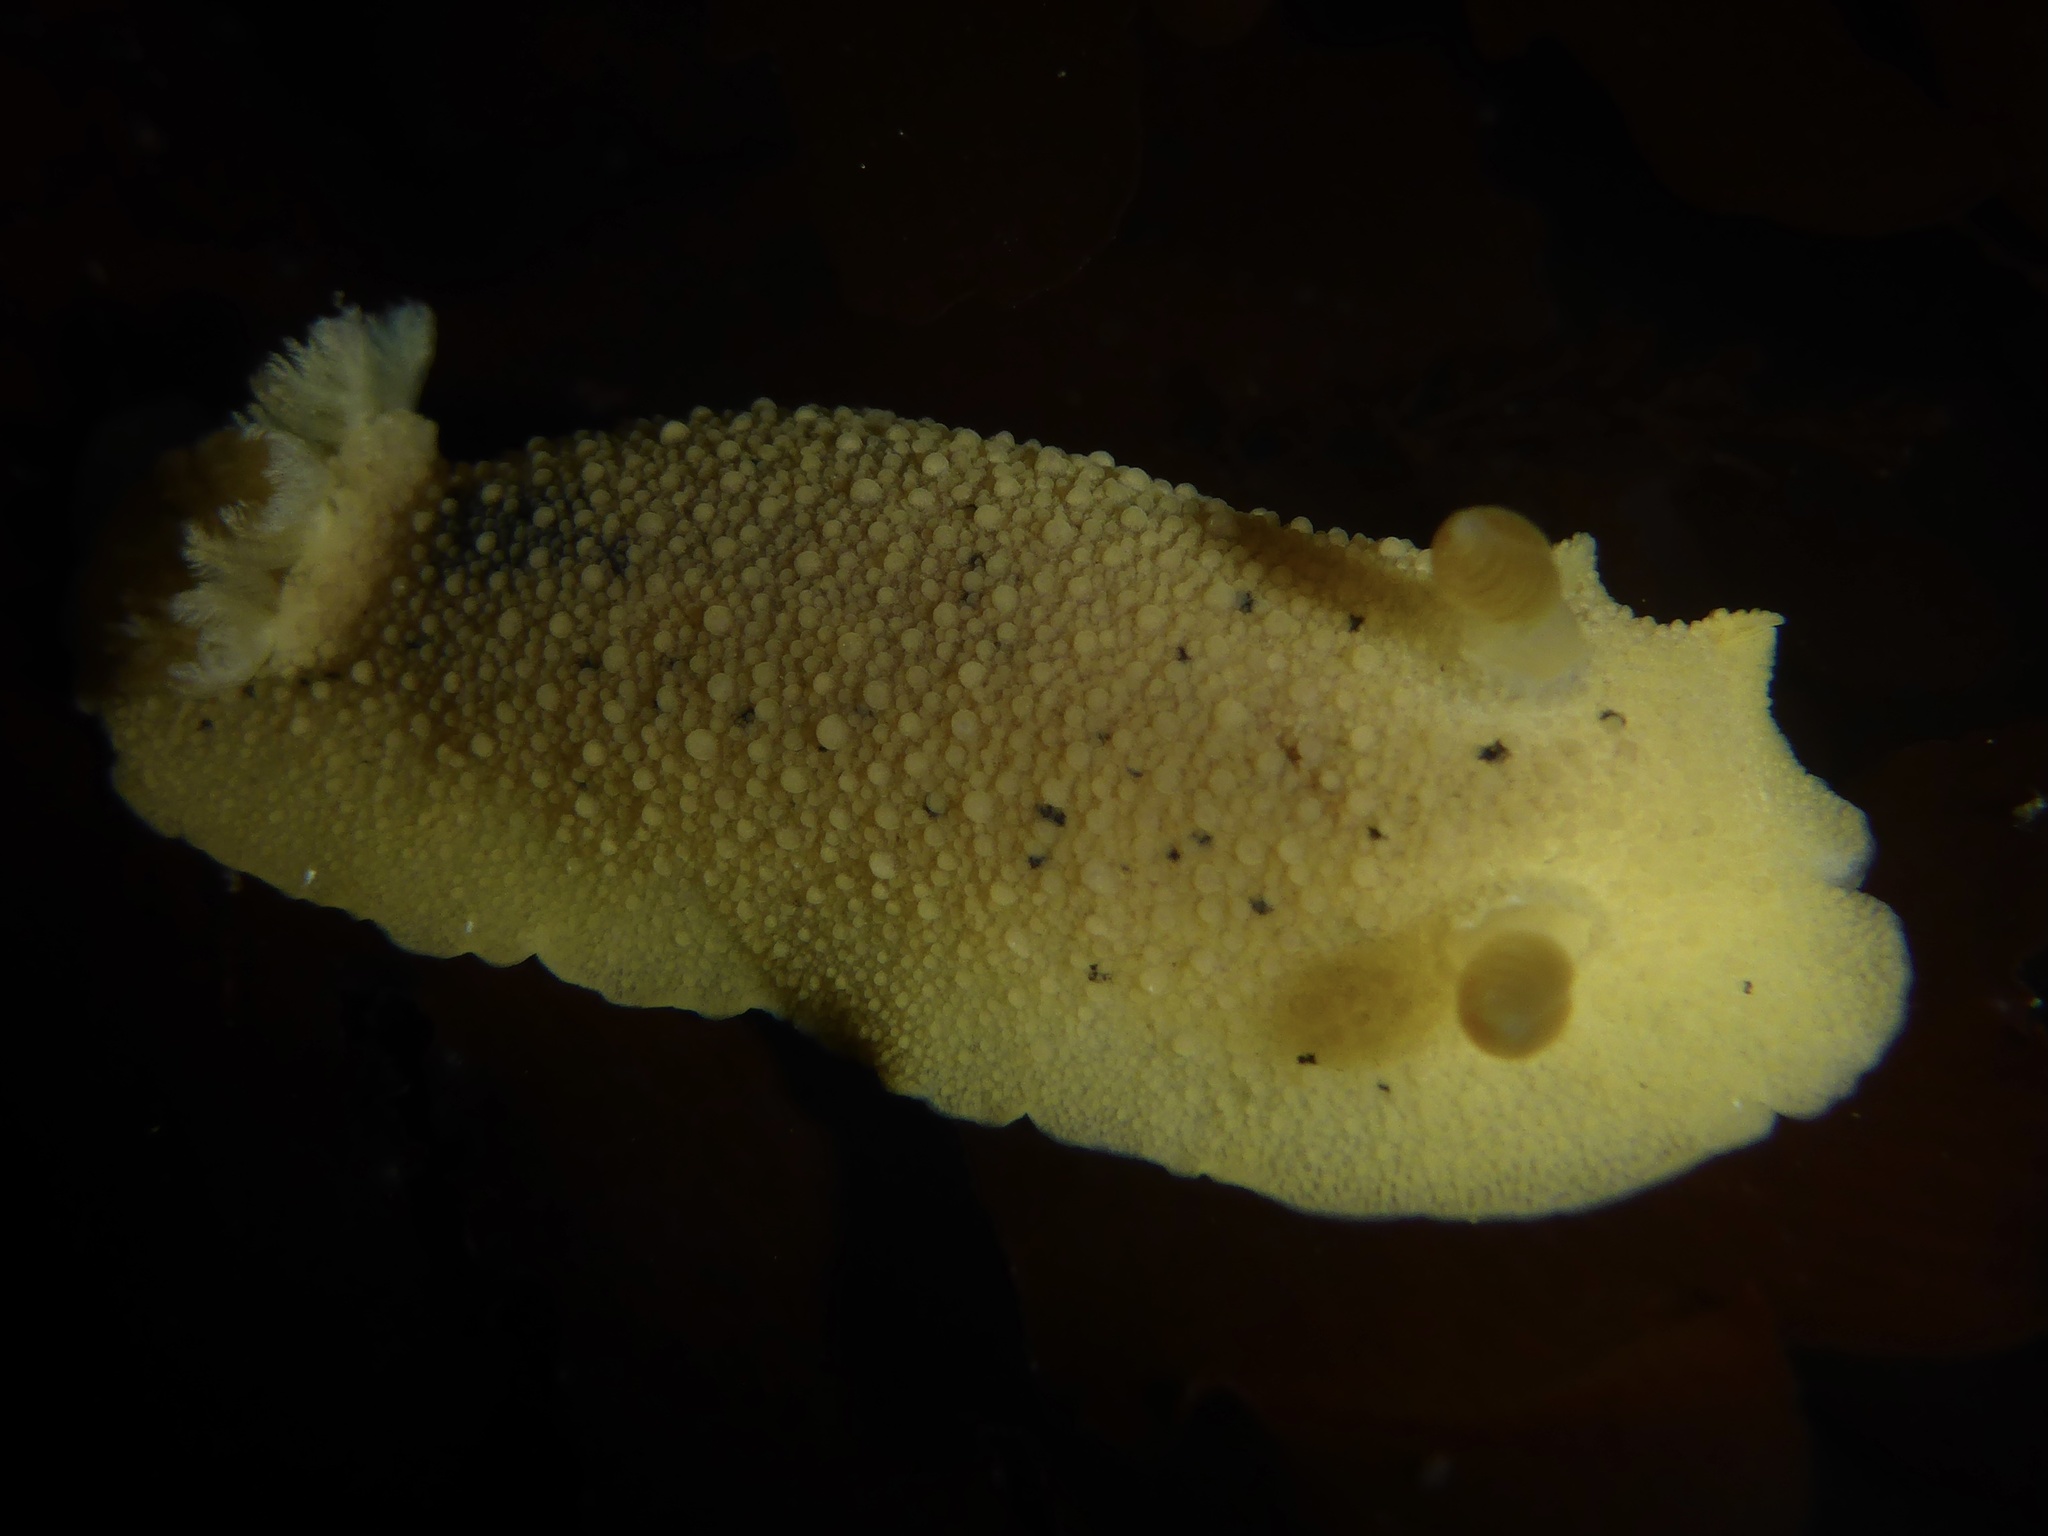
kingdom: Animalia
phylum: Mollusca
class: Gastropoda
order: Nudibranchia
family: Discodorididae
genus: Geitodoris
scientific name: Geitodoris heathi
